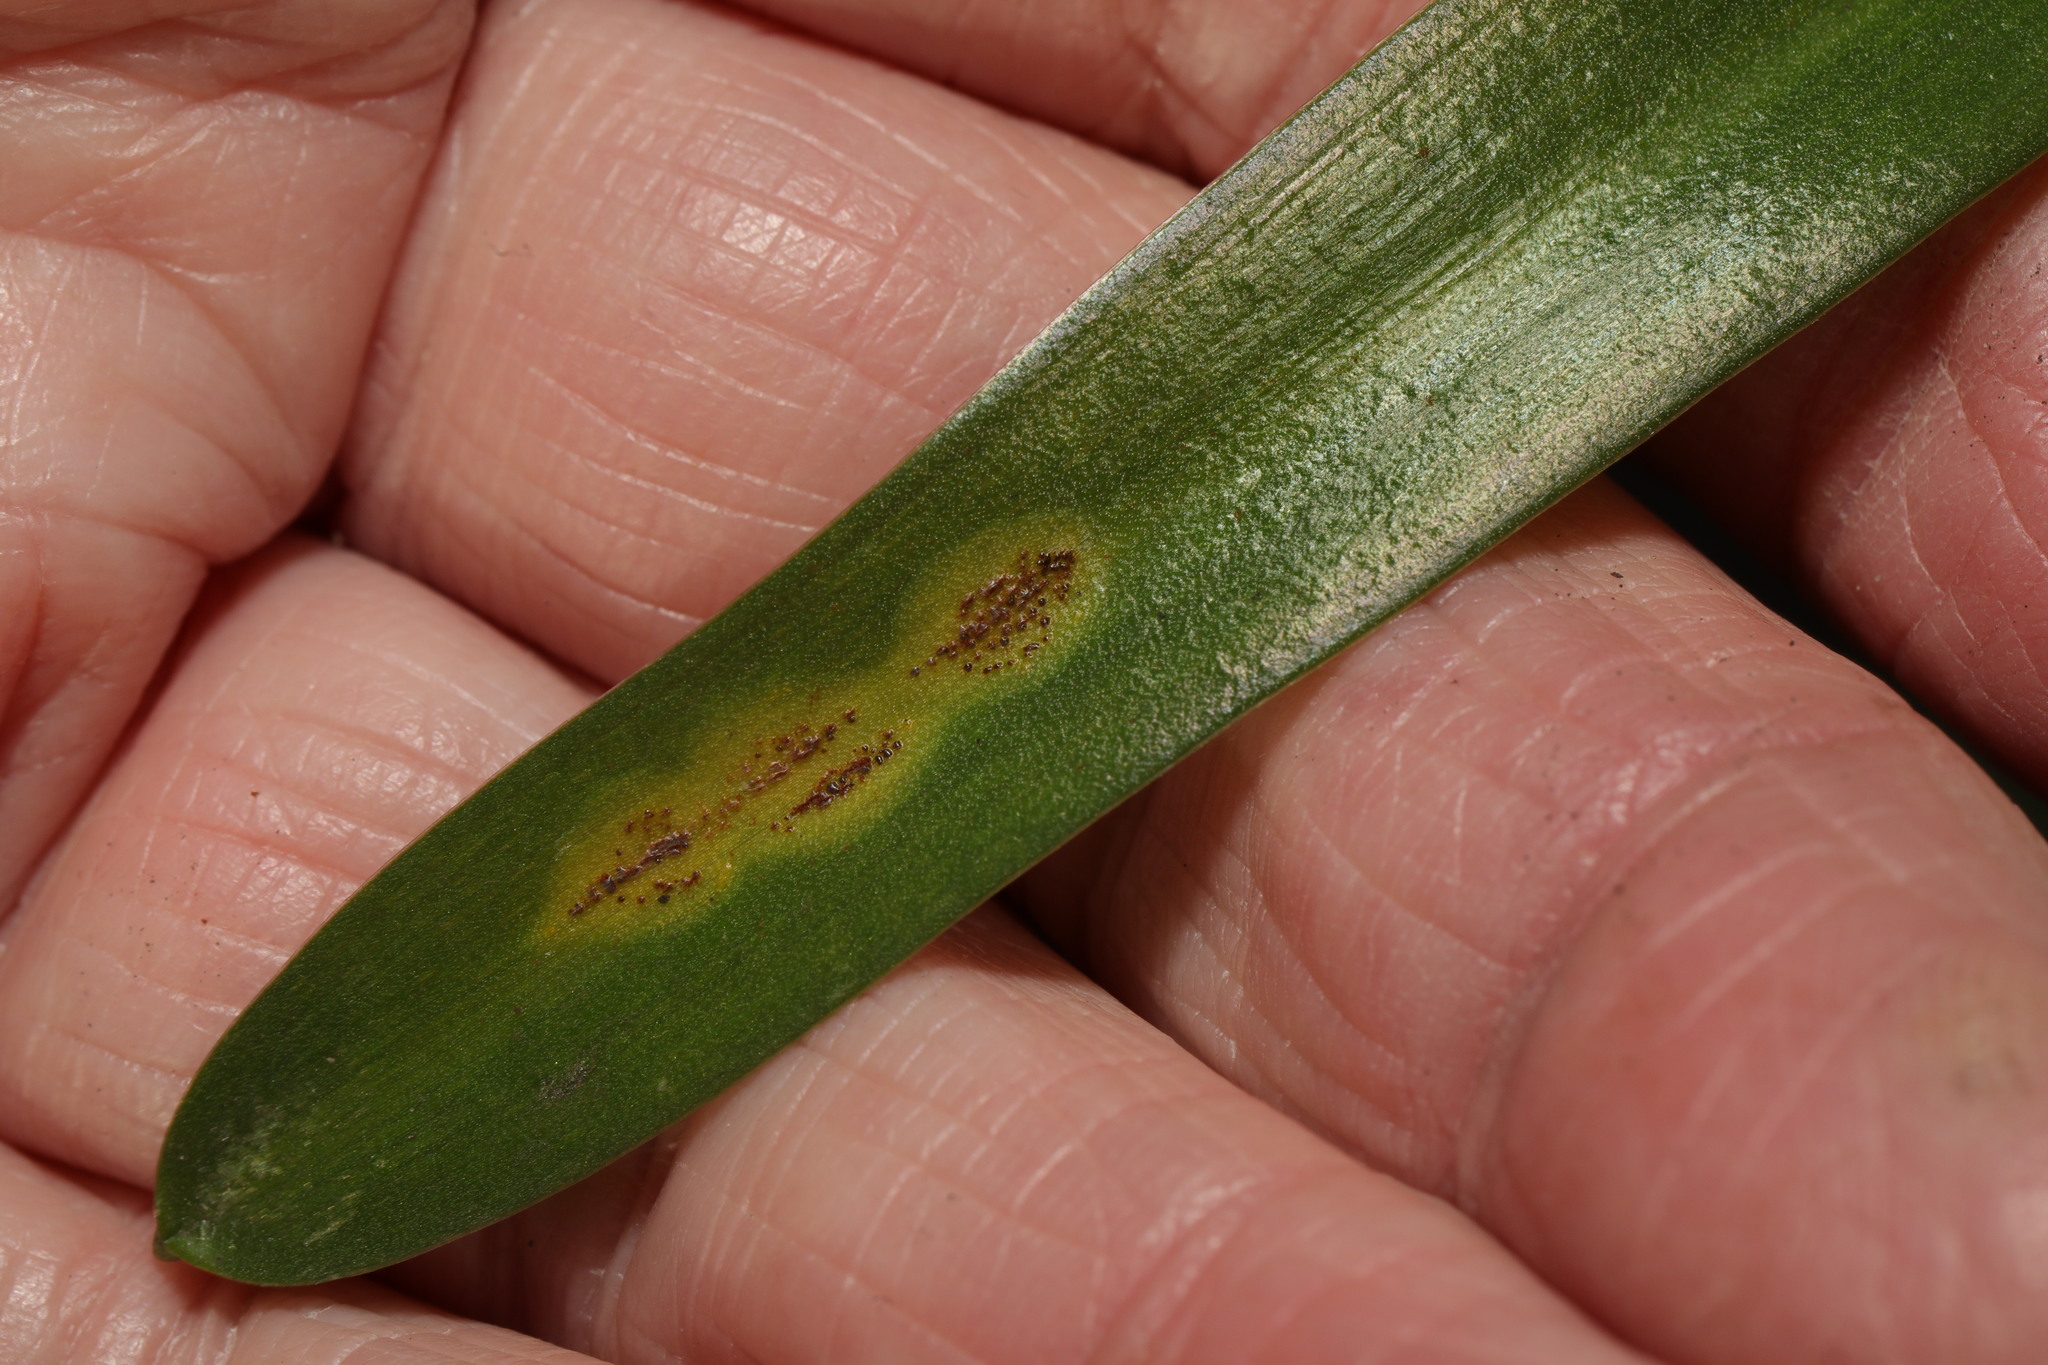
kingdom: Fungi
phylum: Basidiomycota
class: Pucciniomycetes
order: Pucciniales
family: Pucciniaceae
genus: Uromyces
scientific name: Uromyces hyacinthi
